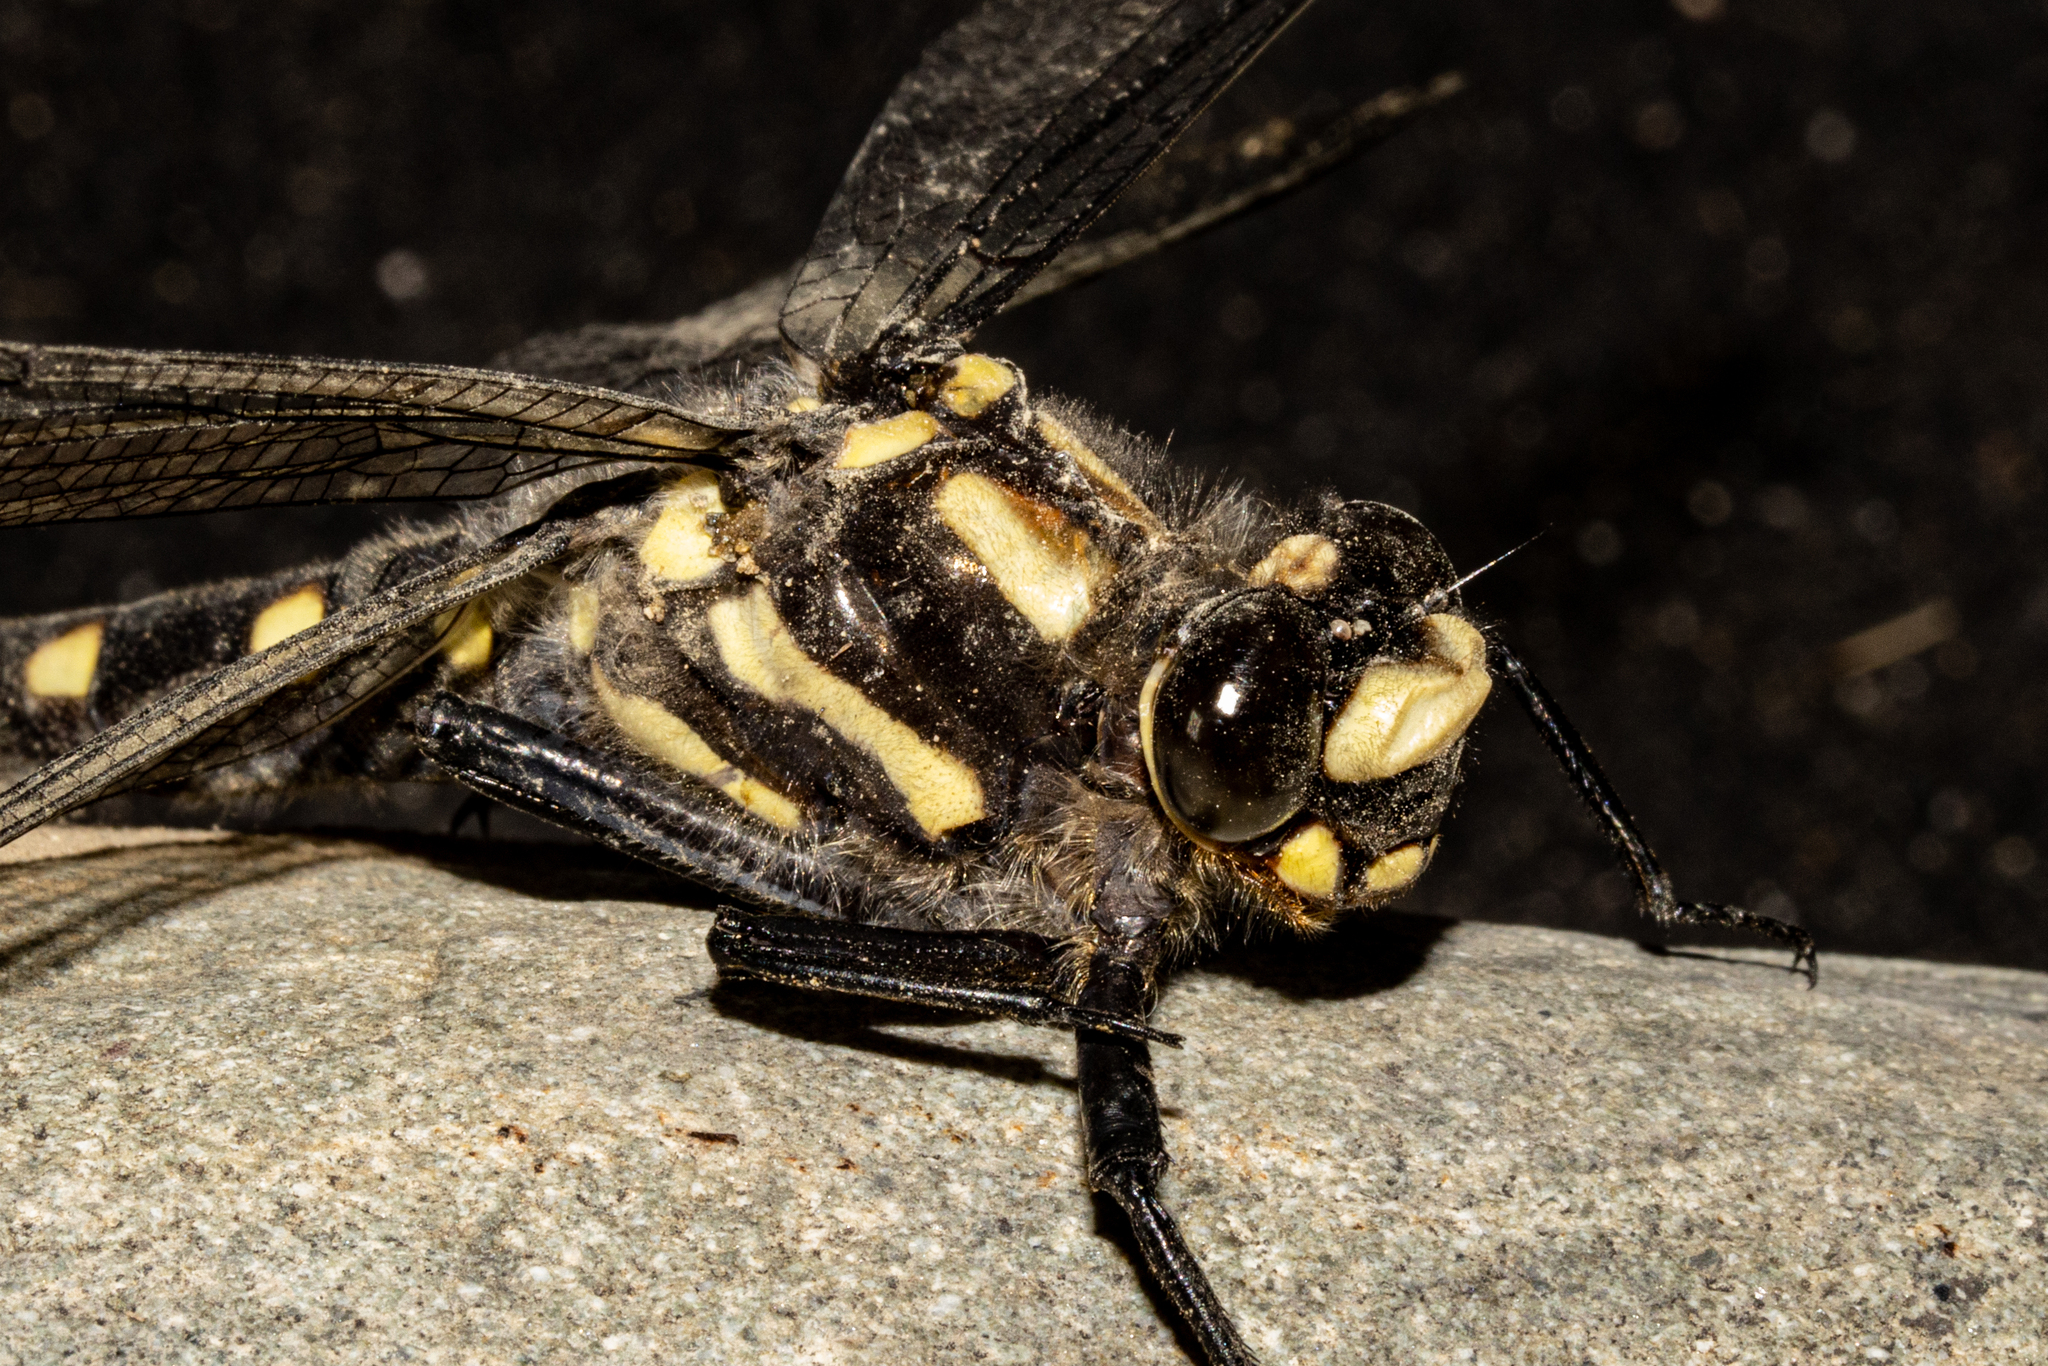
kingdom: Animalia
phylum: Arthropoda
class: Insecta
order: Odonata
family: Petaluridae
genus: Uropetala
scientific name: Uropetala chiltoni
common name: Mountain giant dragonfly
